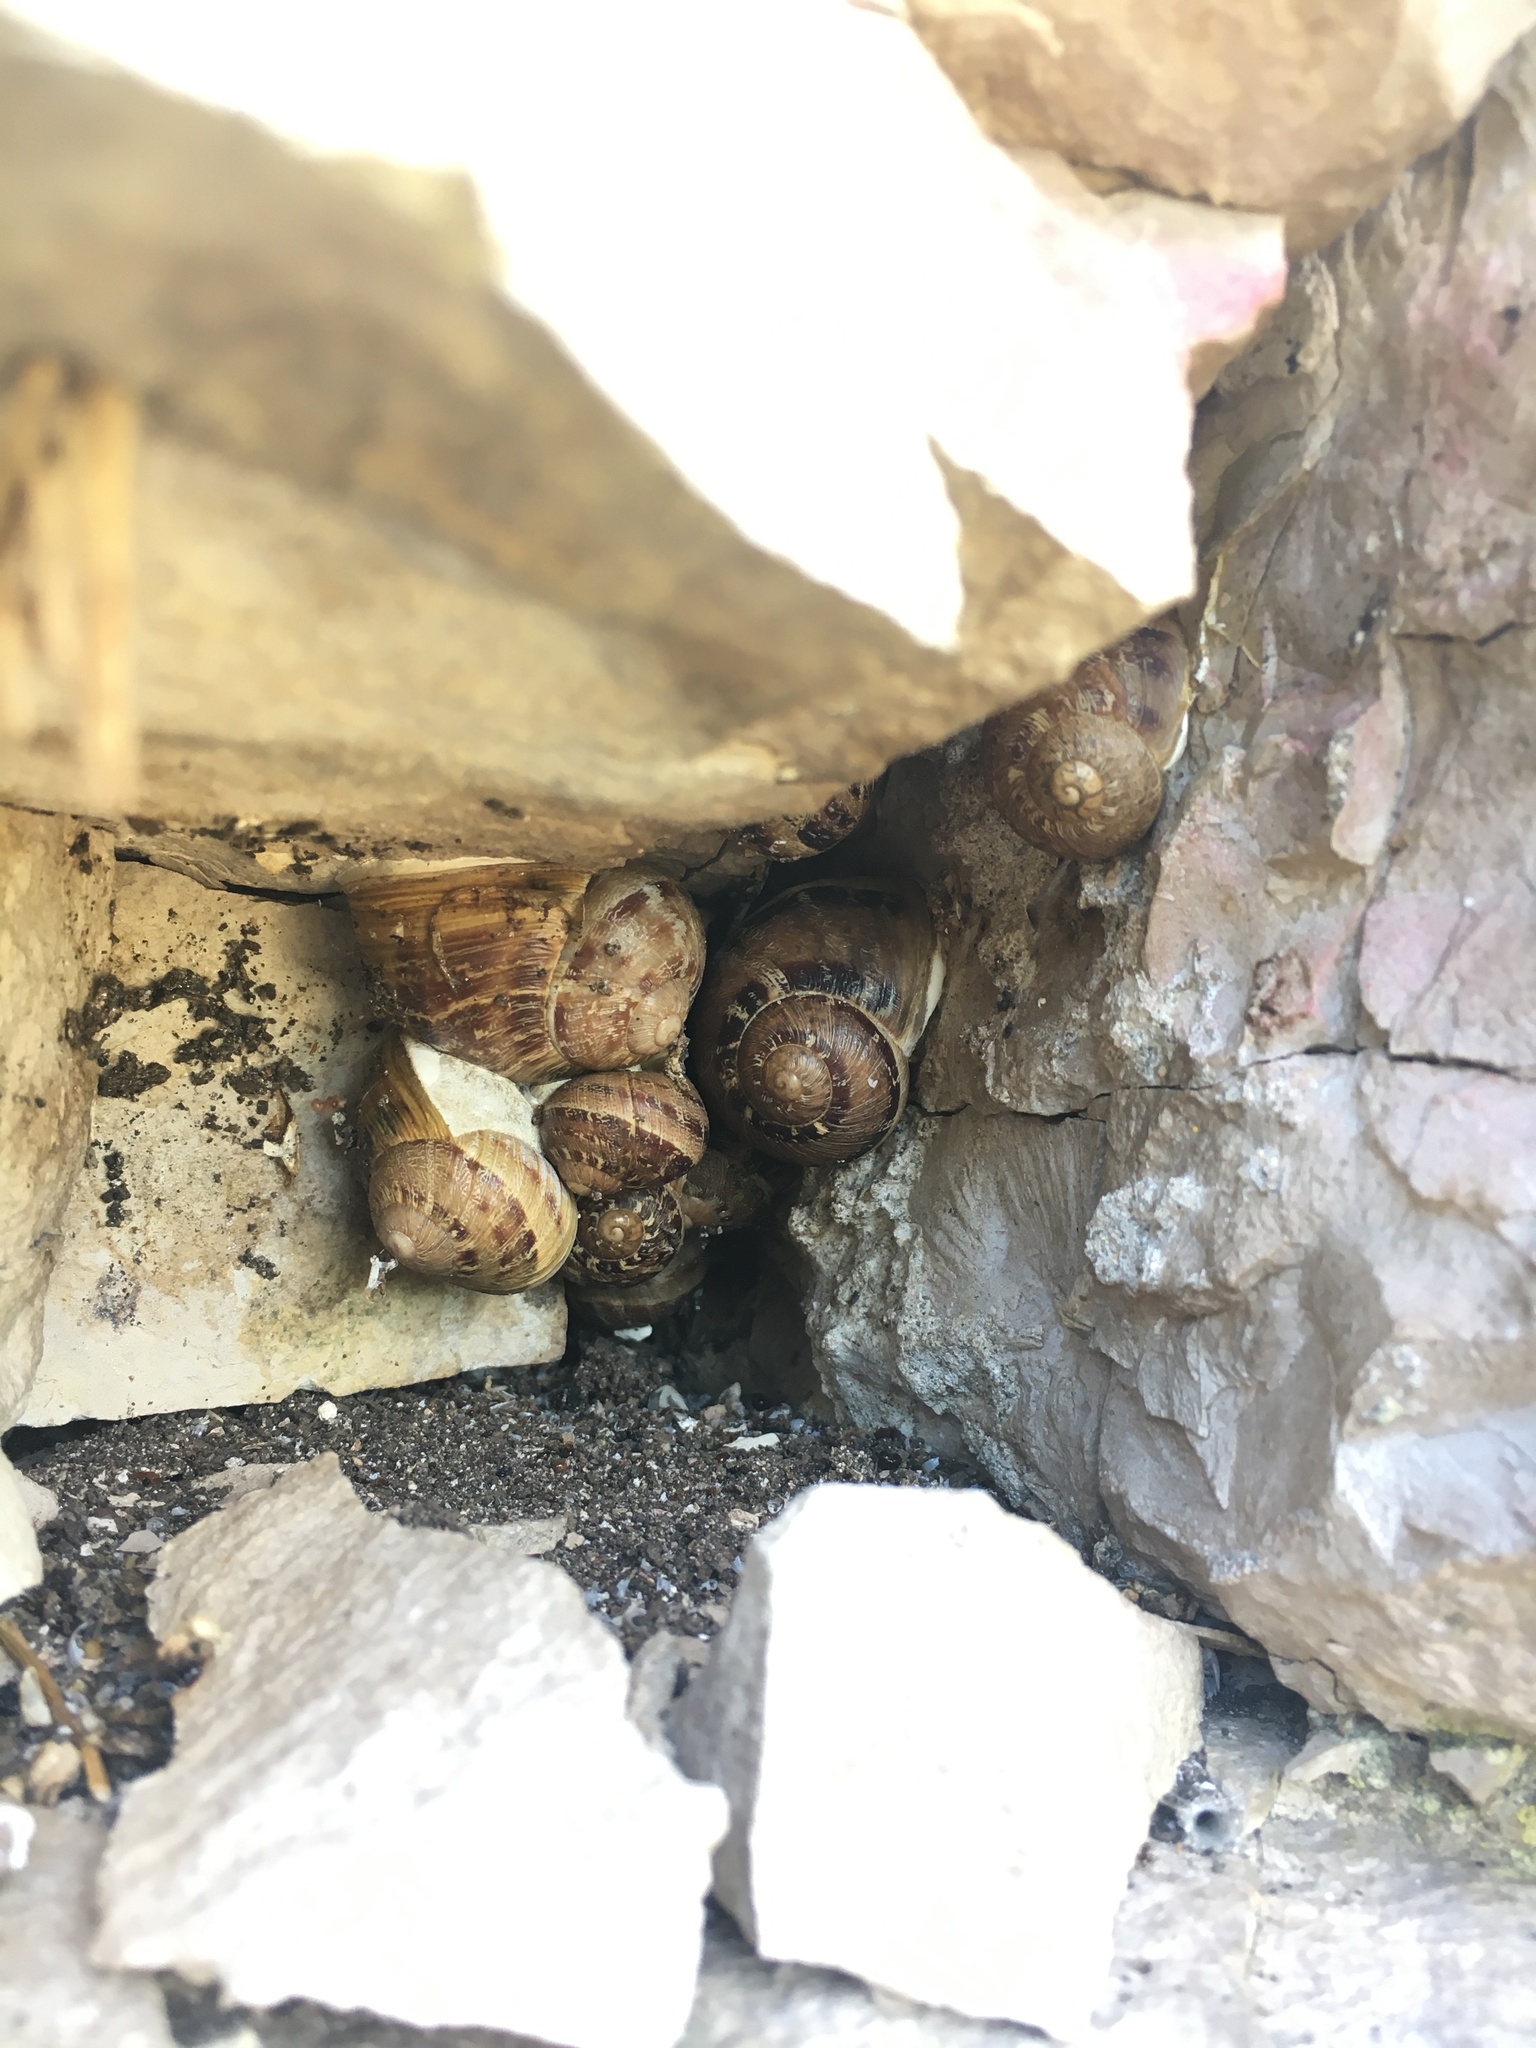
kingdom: Animalia
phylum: Mollusca
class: Gastropoda
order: Stylommatophora
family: Helicidae
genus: Cornu
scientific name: Cornu aspersum
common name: Brown garden snail
